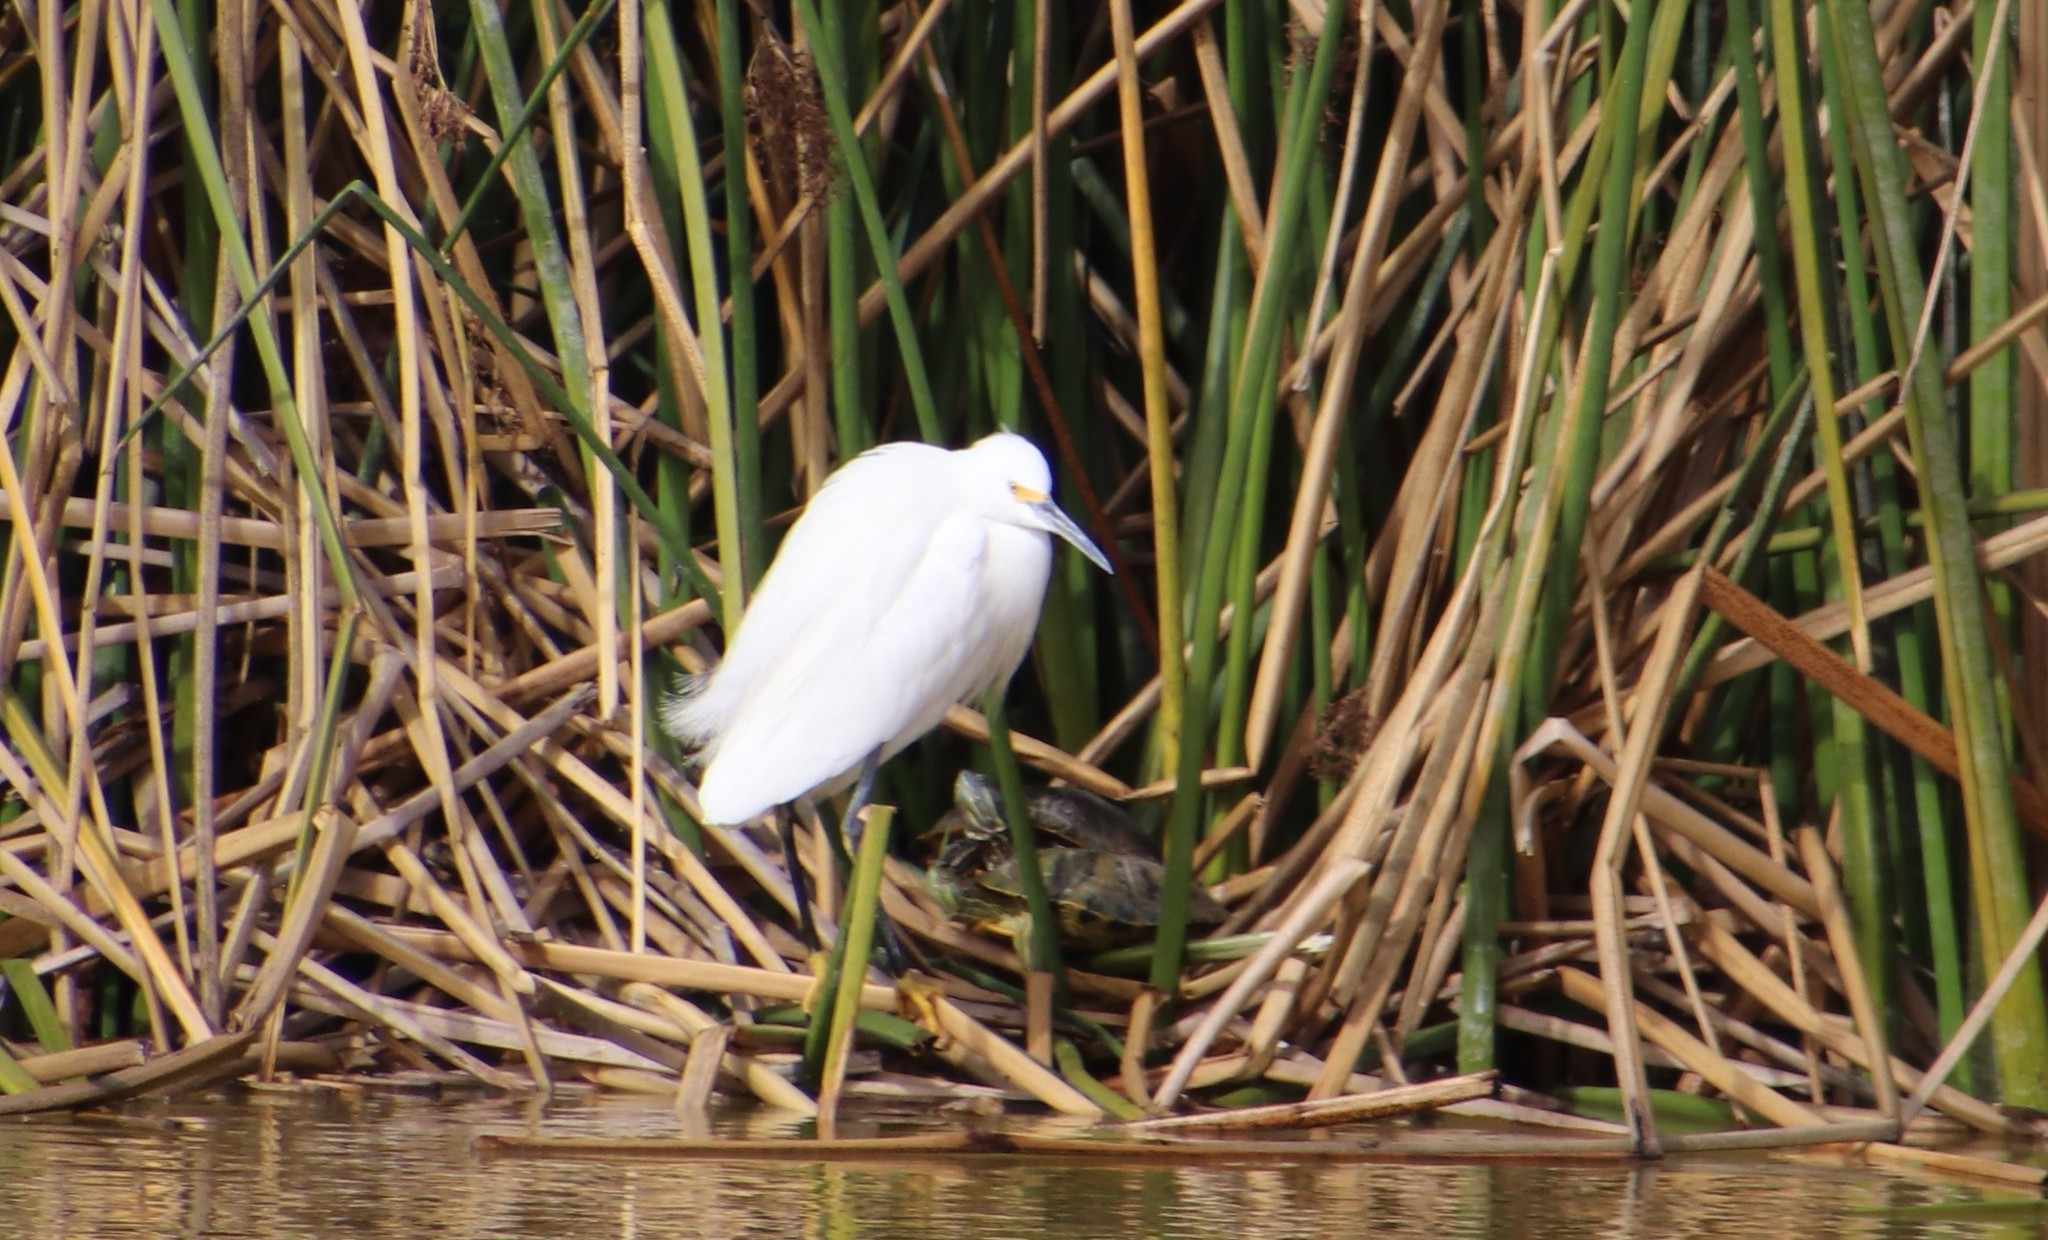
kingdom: Animalia
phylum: Chordata
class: Aves
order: Pelecaniformes
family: Ardeidae
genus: Egretta
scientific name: Egretta thula
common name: Snowy egret
